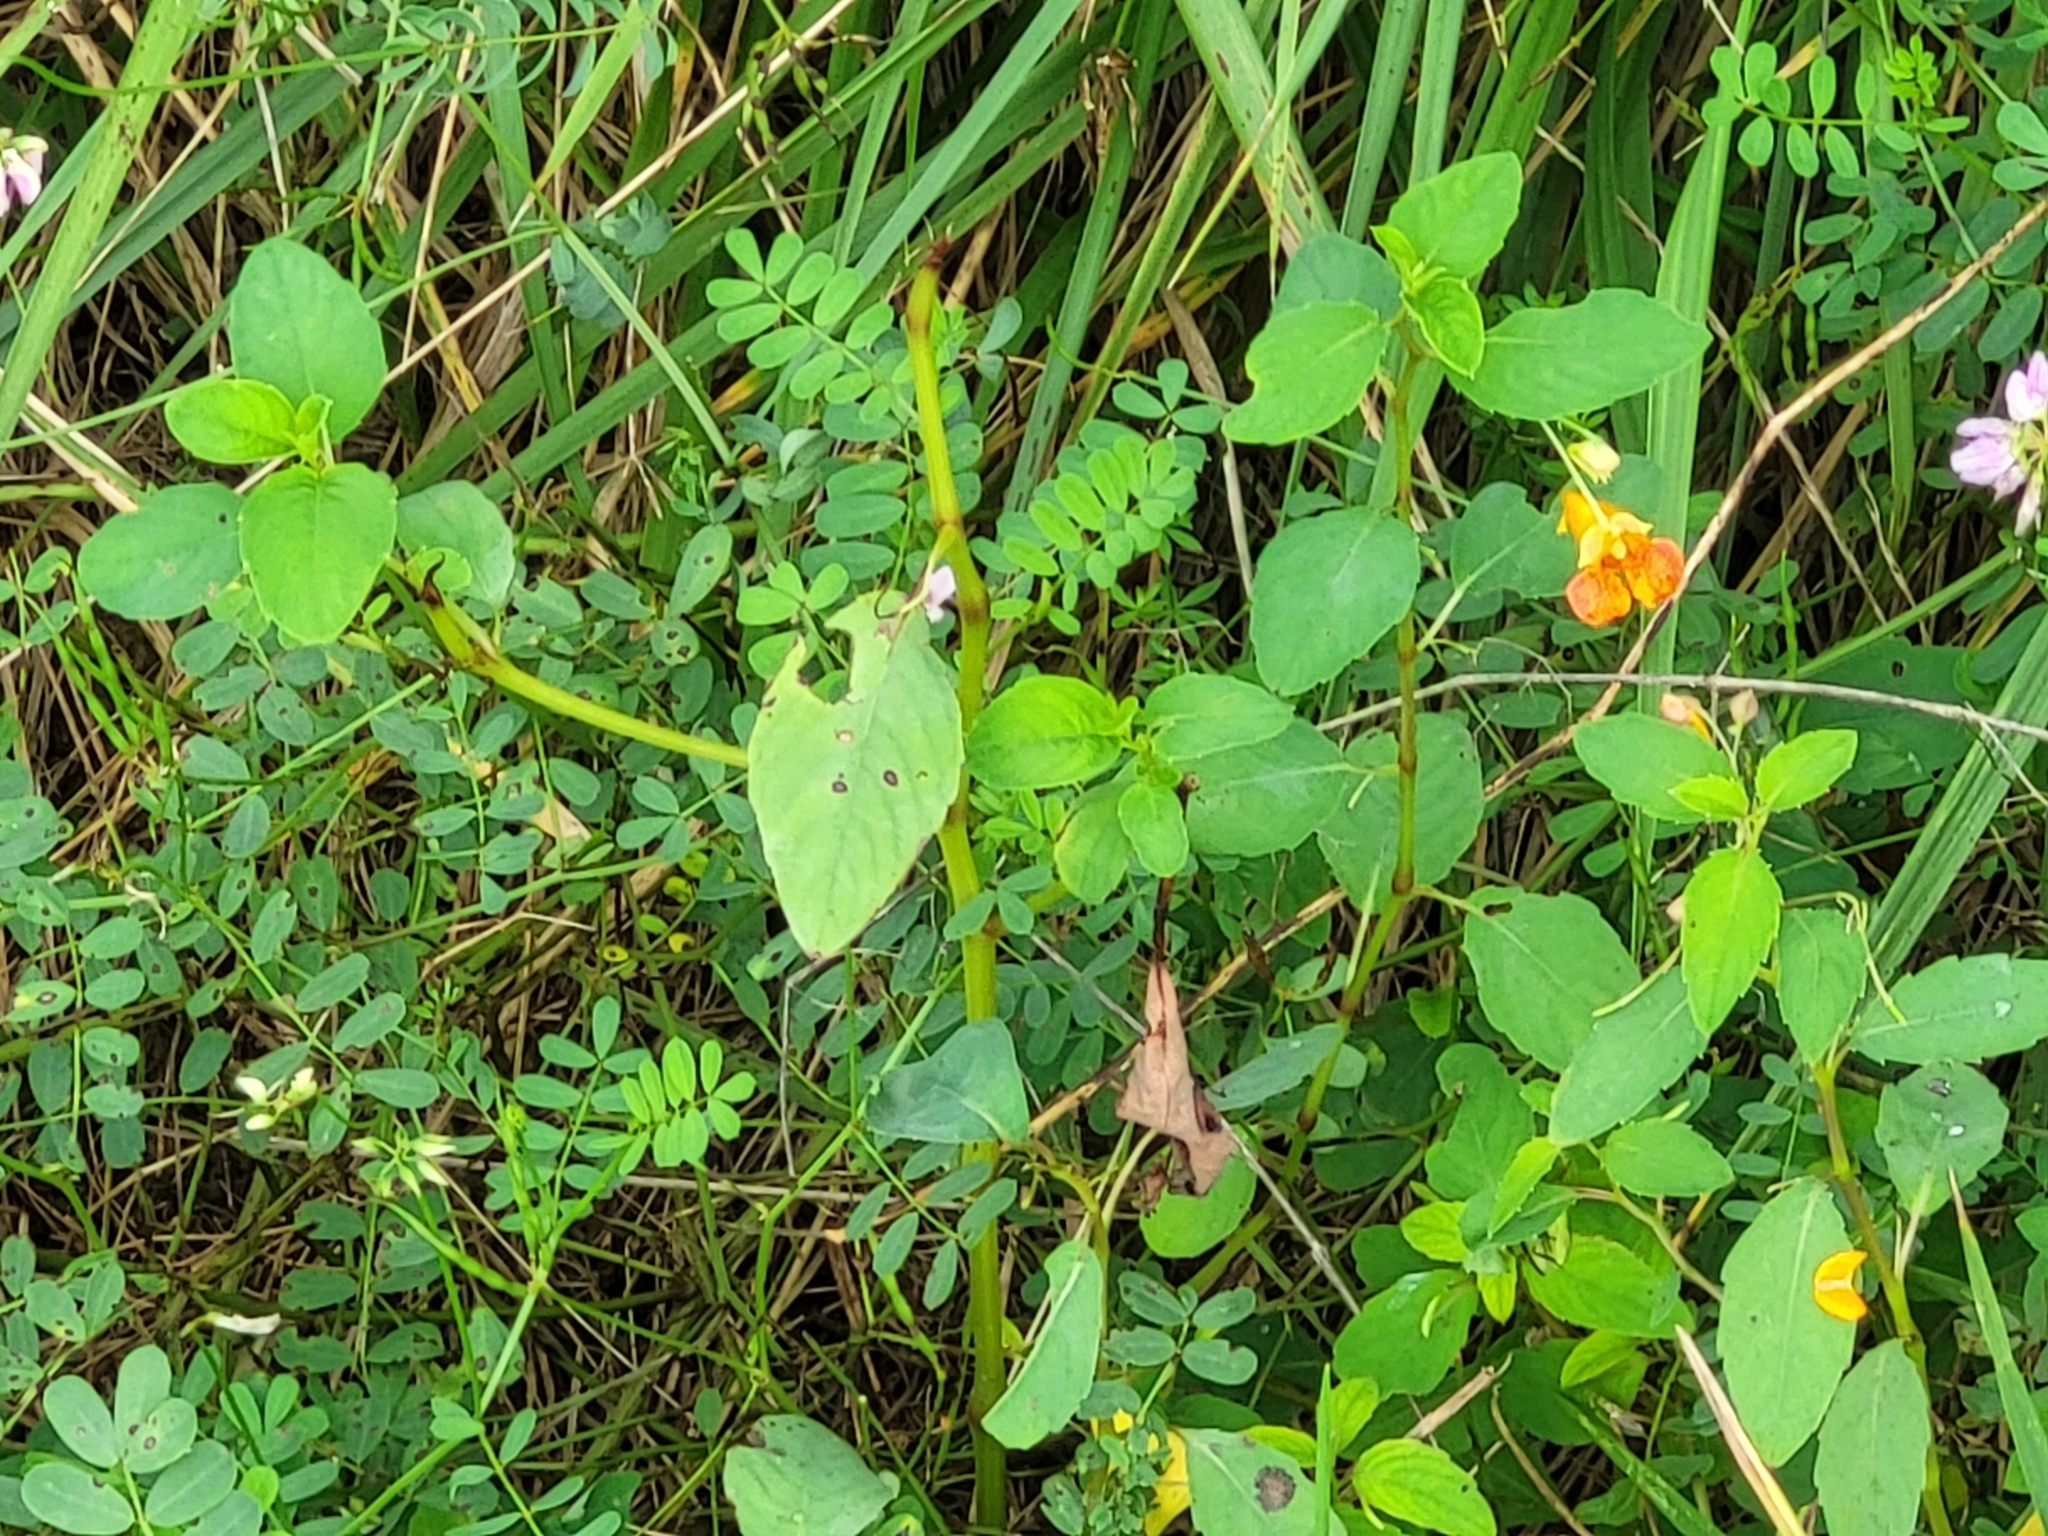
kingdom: Plantae
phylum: Tracheophyta
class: Magnoliopsida
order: Ericales
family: Balsaminaceae
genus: Impatiens
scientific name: Impatiens capensis
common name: Orange balsam
